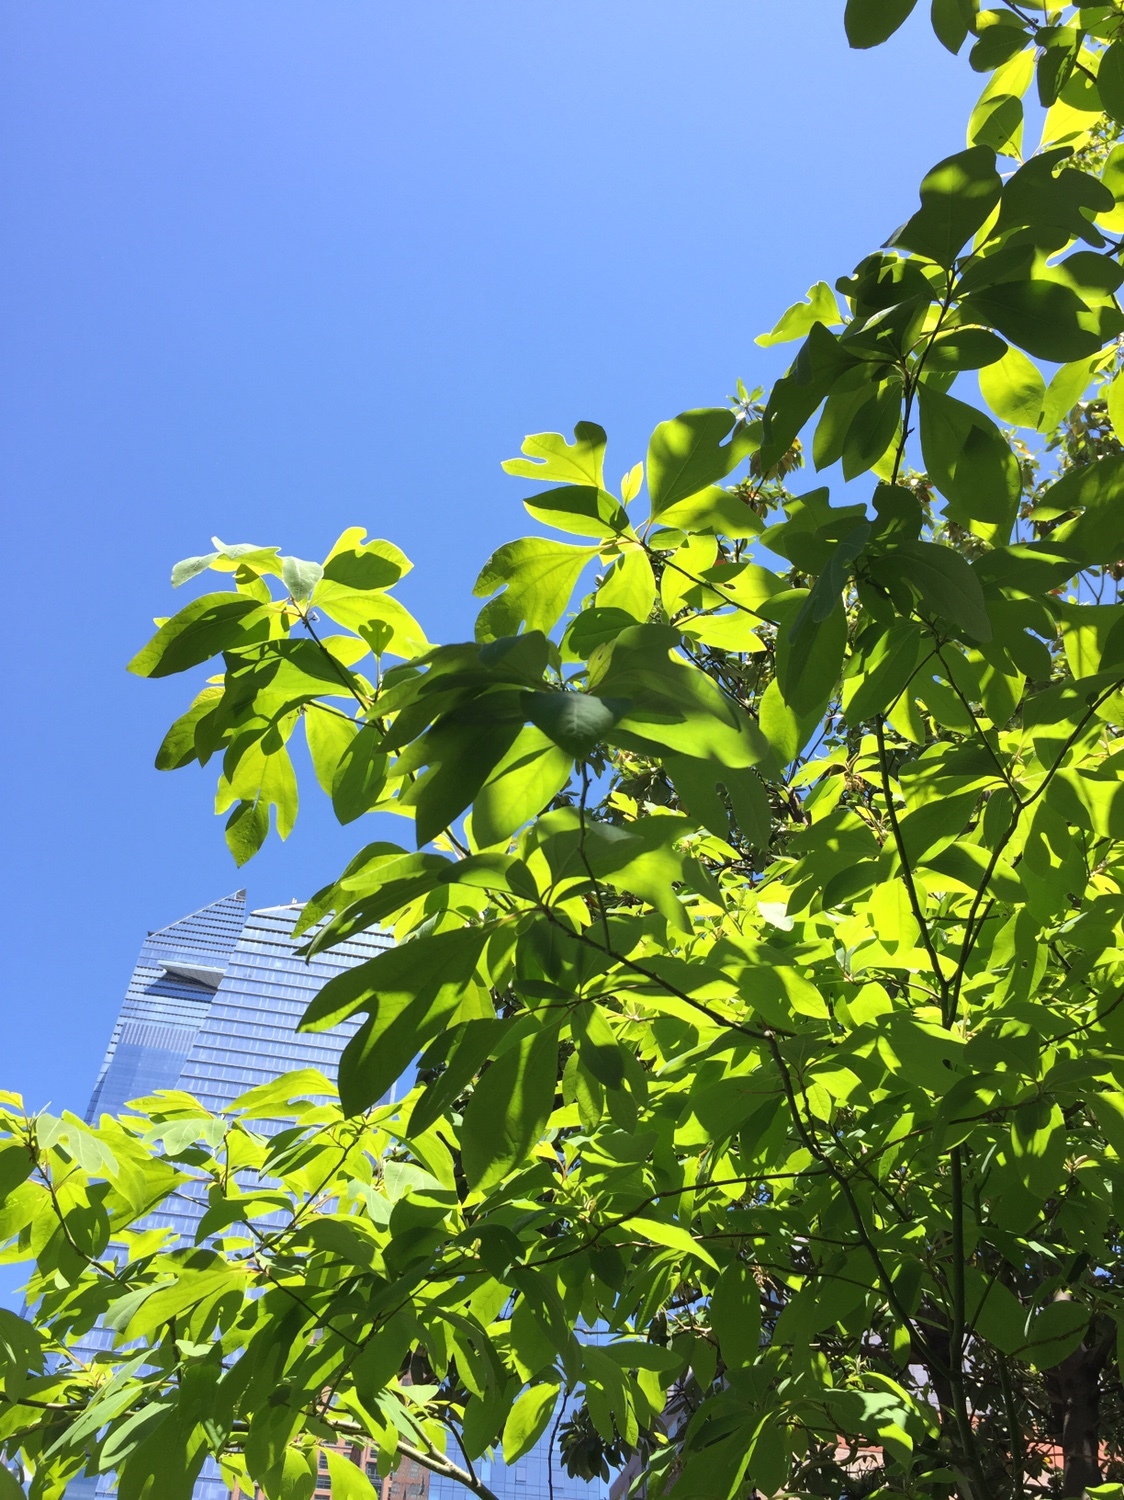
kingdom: Plantae
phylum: Tracheophyta
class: Magnoliopsida
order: Laurales
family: Lauraceae
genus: Sassafras
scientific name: Sassafras albidum
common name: Sassafras
